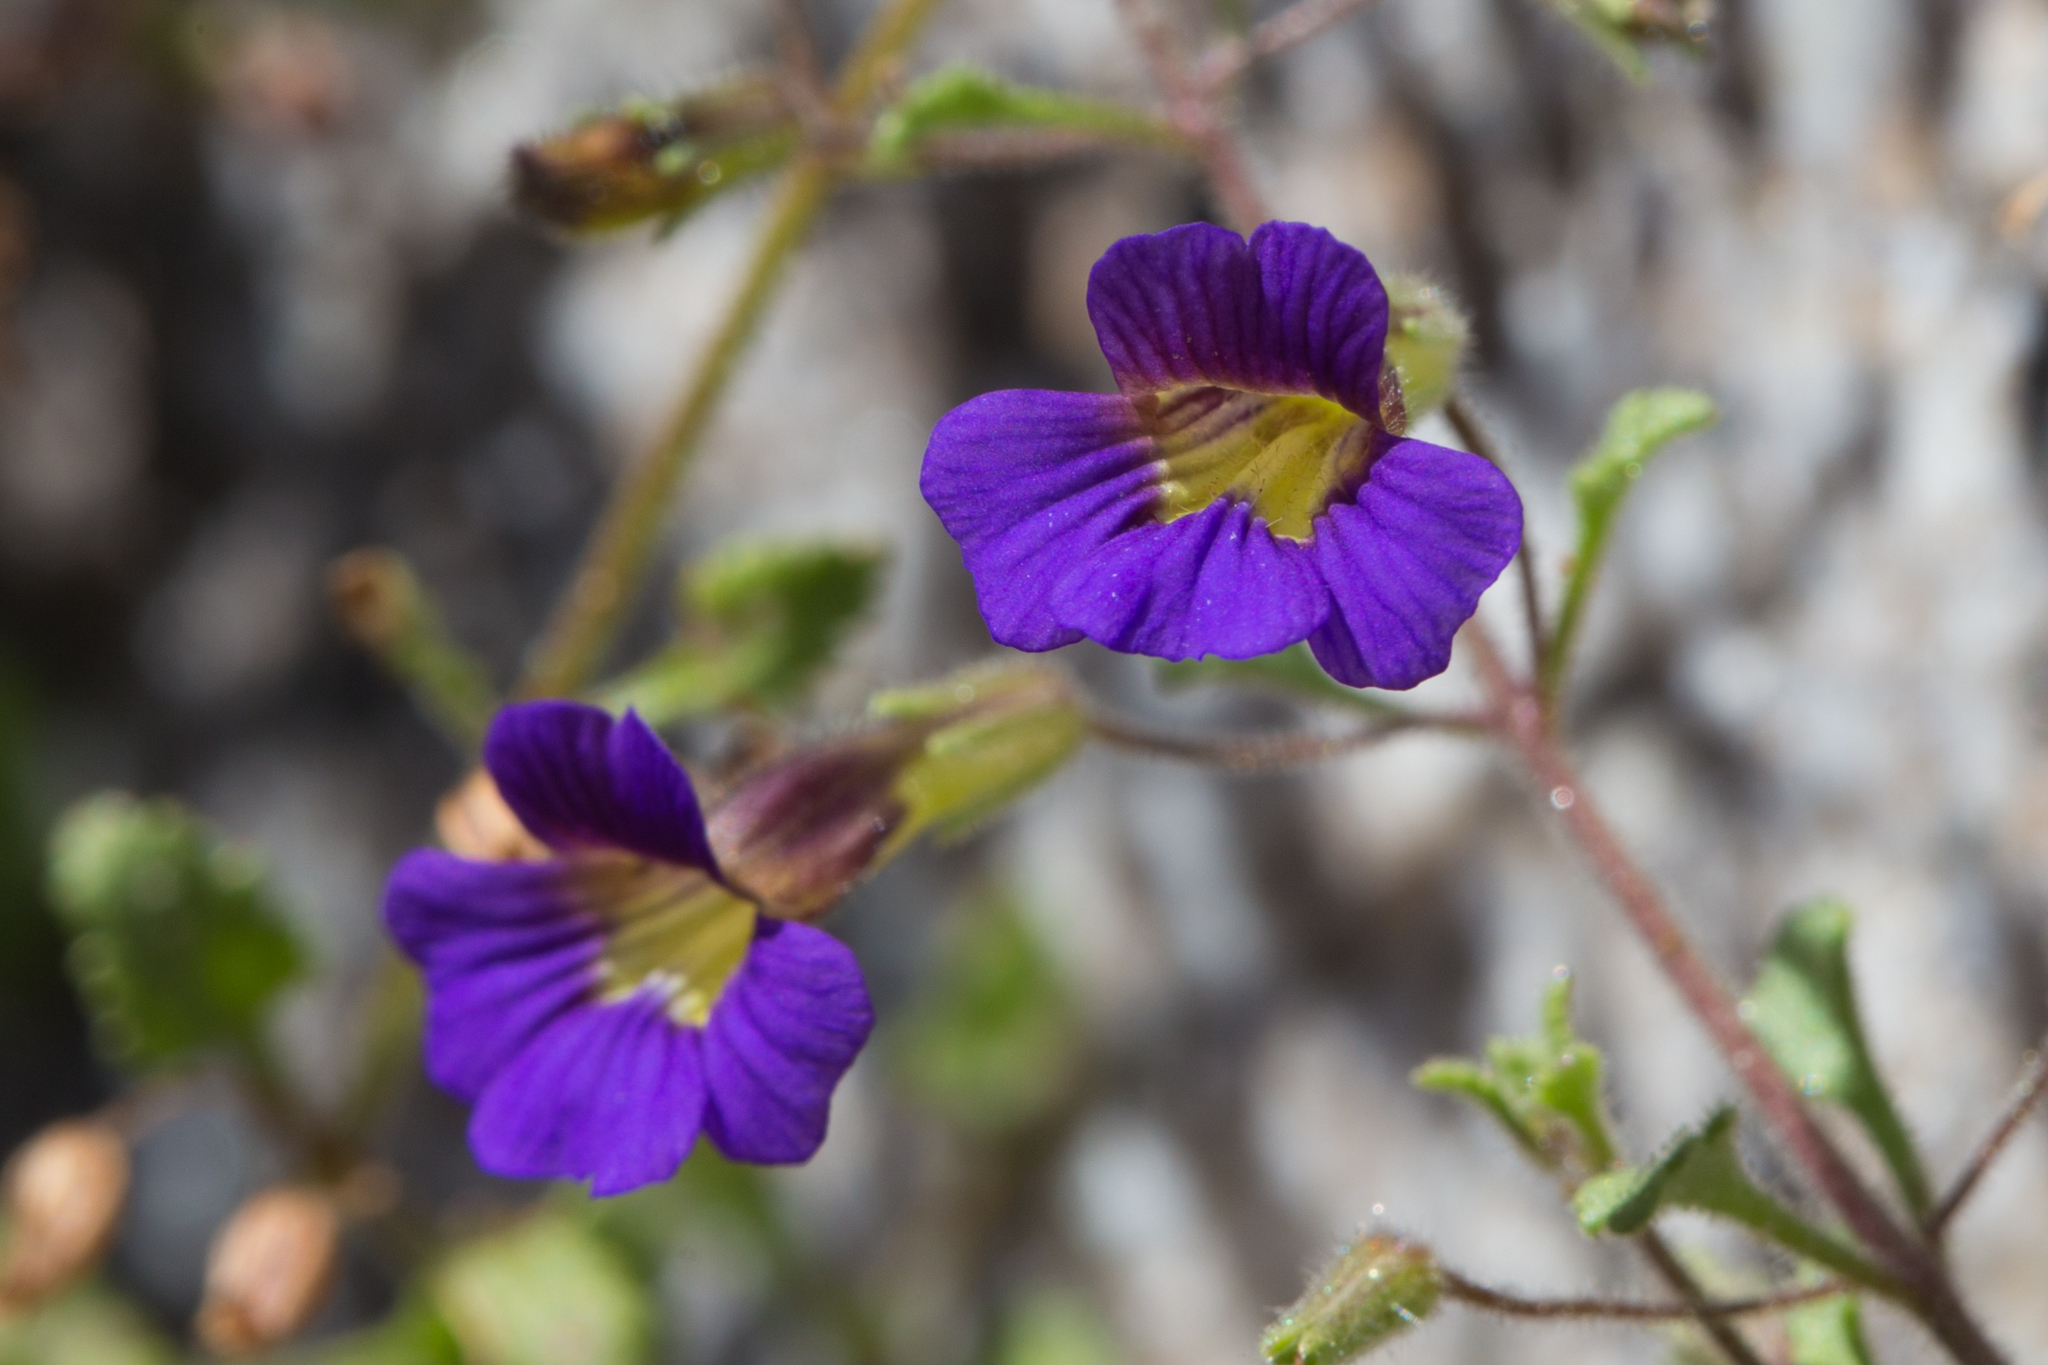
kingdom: Plantae
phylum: Tracheophyta
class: Magnoliopsida
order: Lamiales
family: Plantaginaceae
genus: Stemodia
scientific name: Stemodia pusilla
